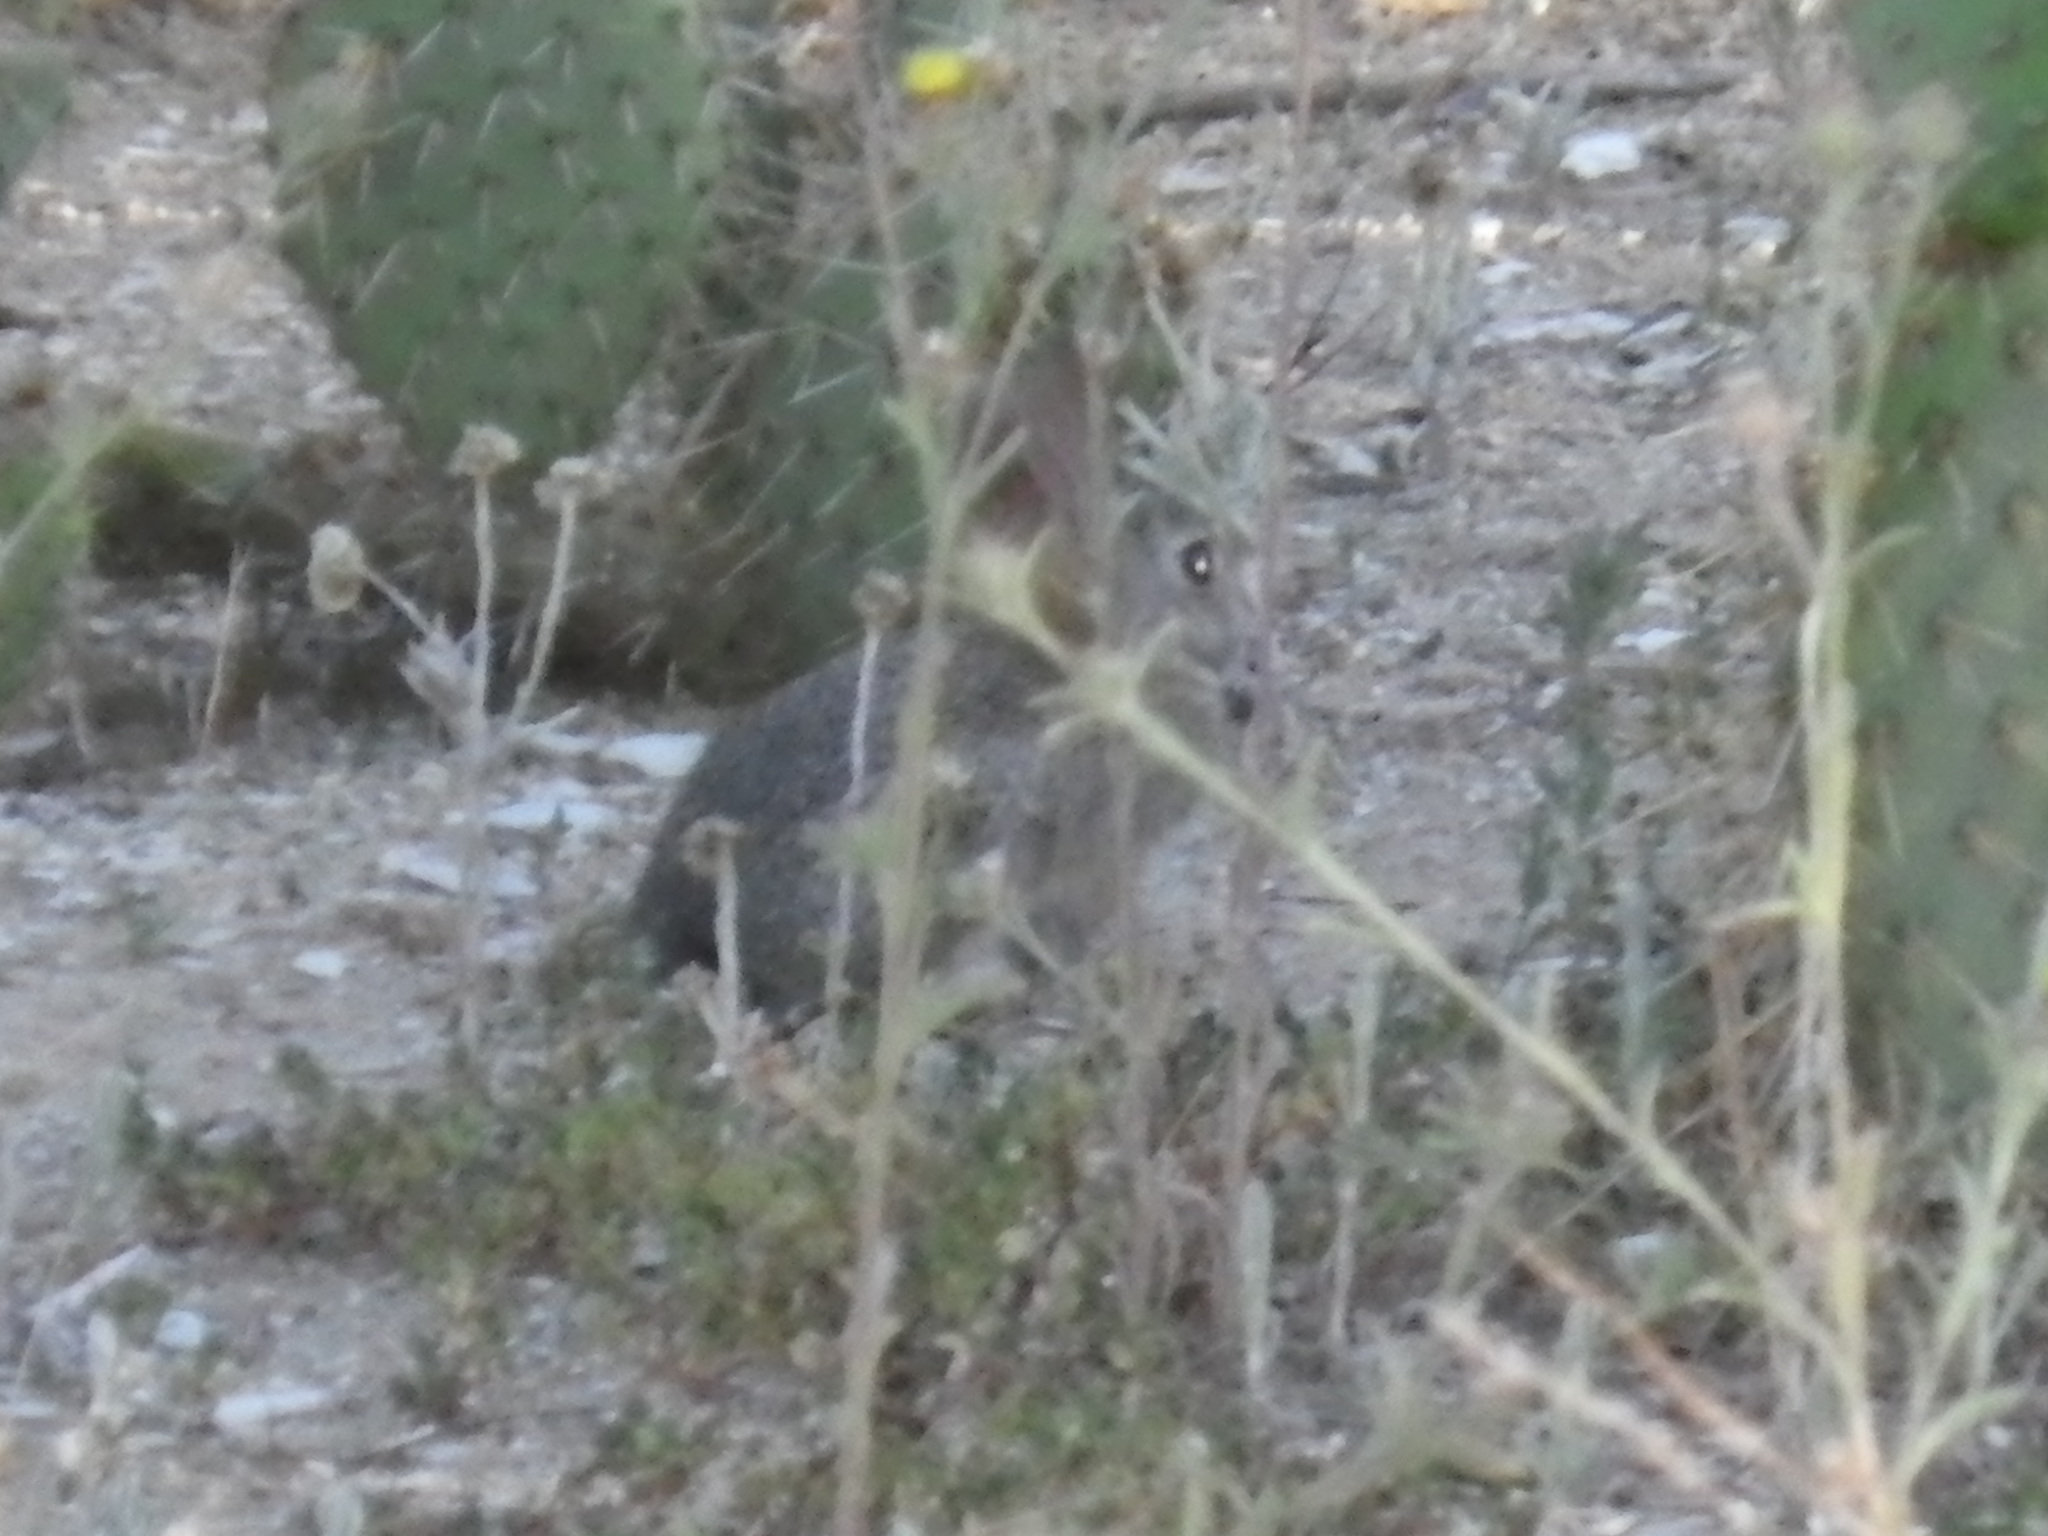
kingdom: Animalia
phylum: Chordata
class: Mammalia
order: Lagomorpha
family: Leporidae
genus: Sylvilagus
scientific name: Sylvilagus audubonii
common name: Desert cottontail
